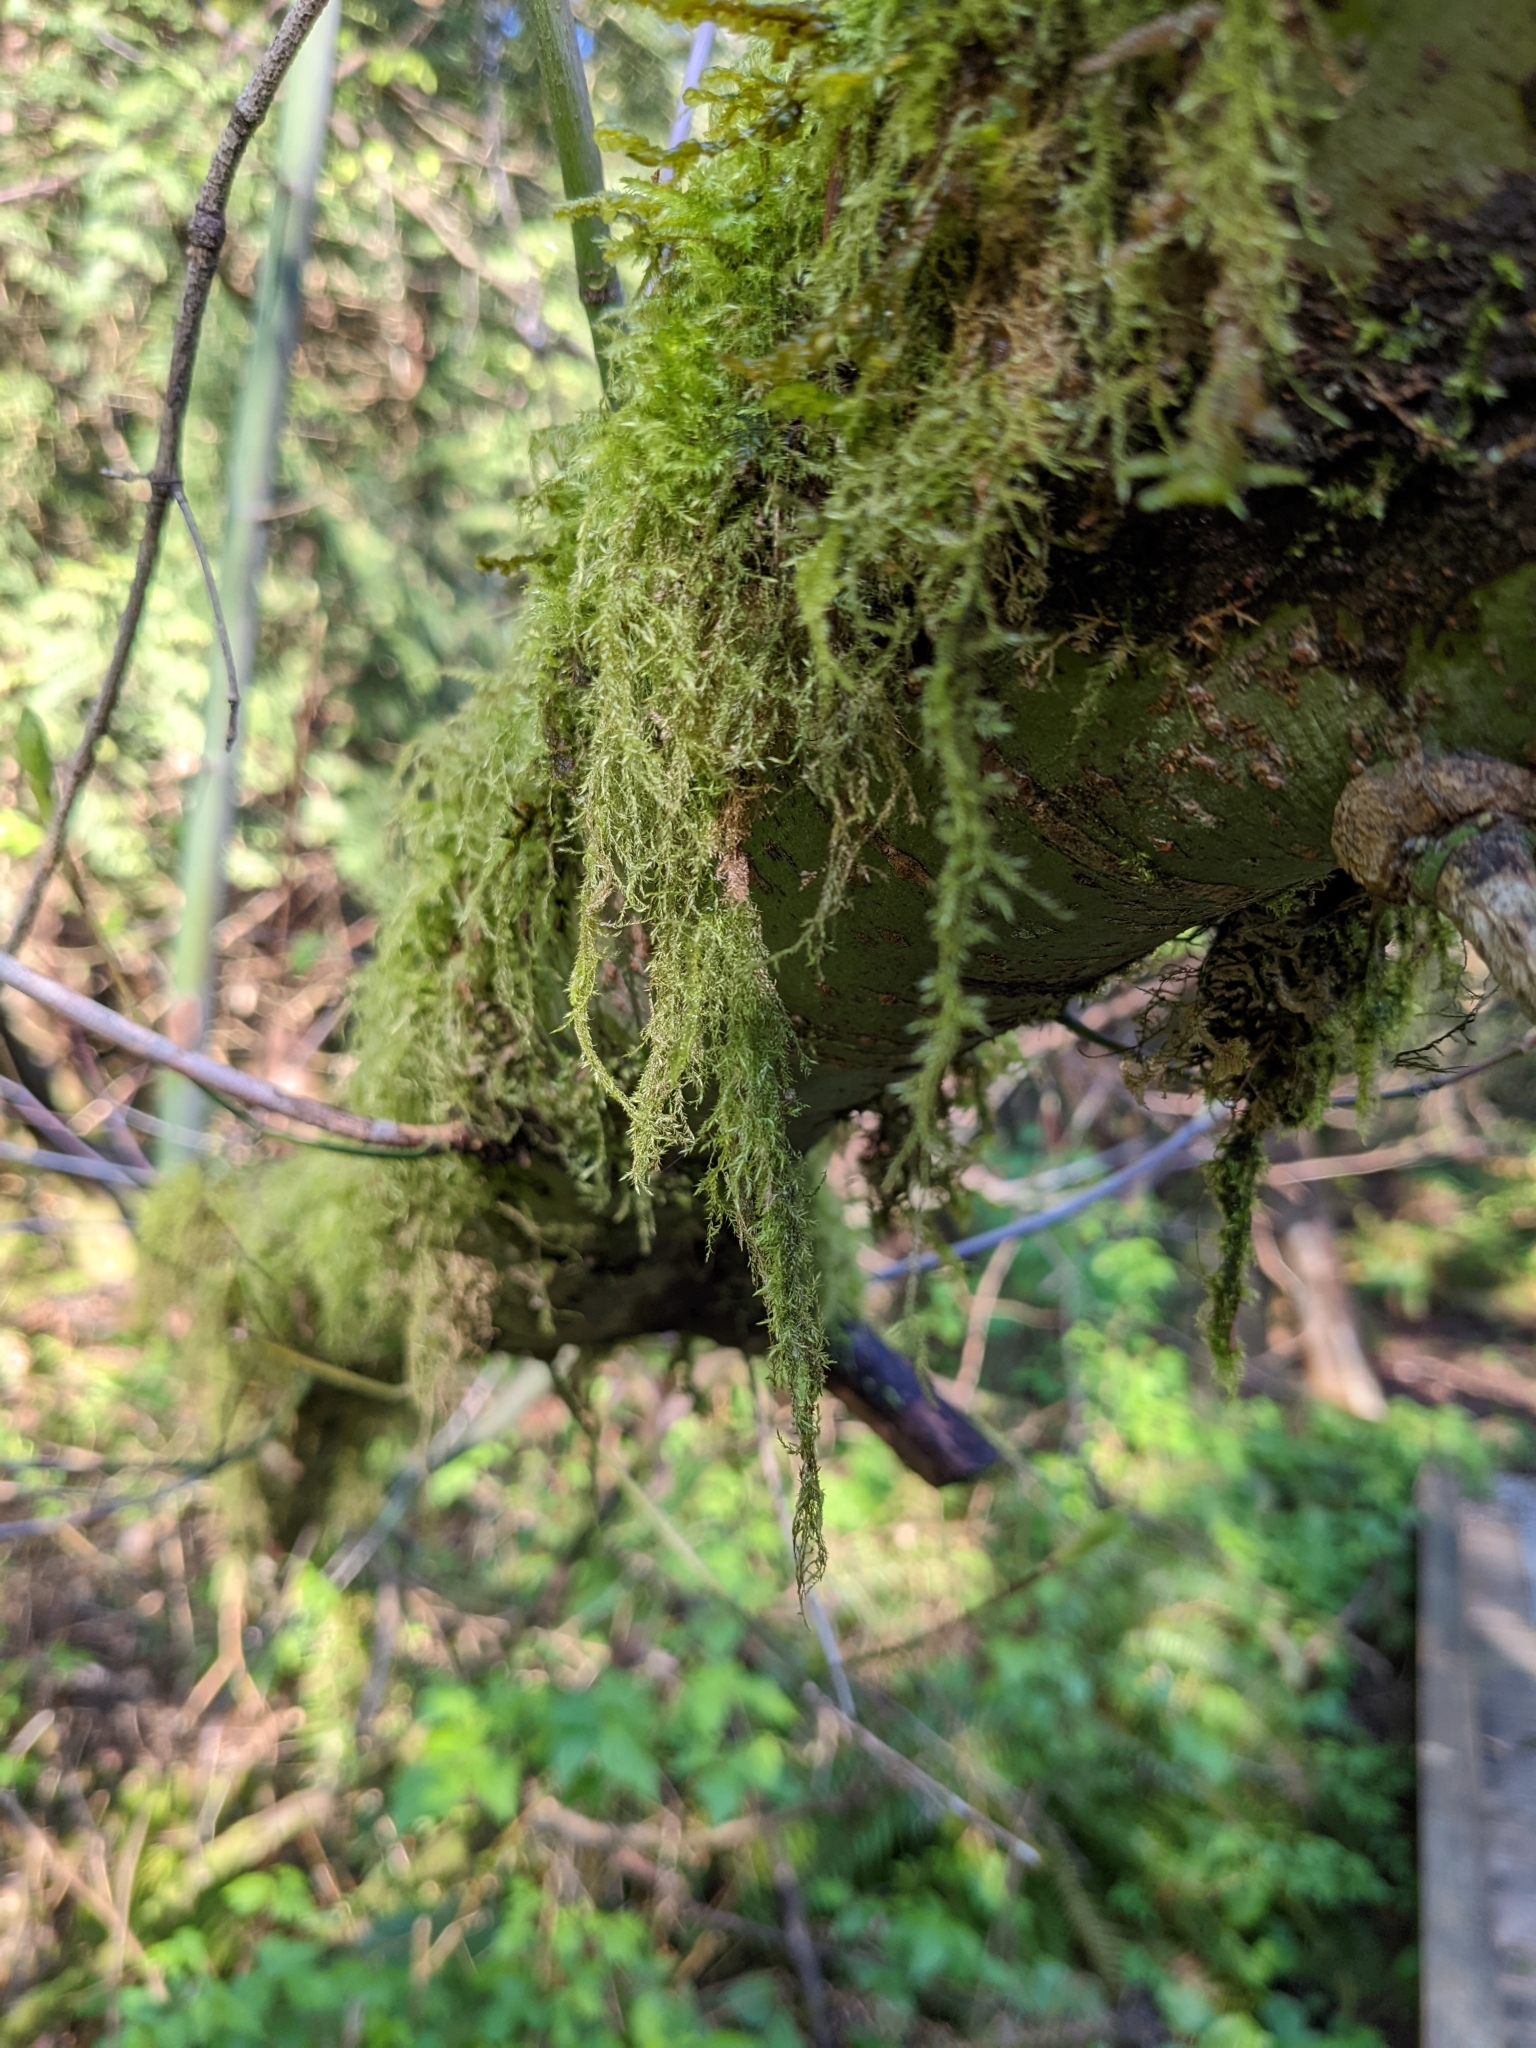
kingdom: Plantae
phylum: Bryophyta
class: Bryopsida
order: Hypnales
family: Lembophyllaceae
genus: Pseudisothecium
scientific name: Pseudisothecium stoloniferum
